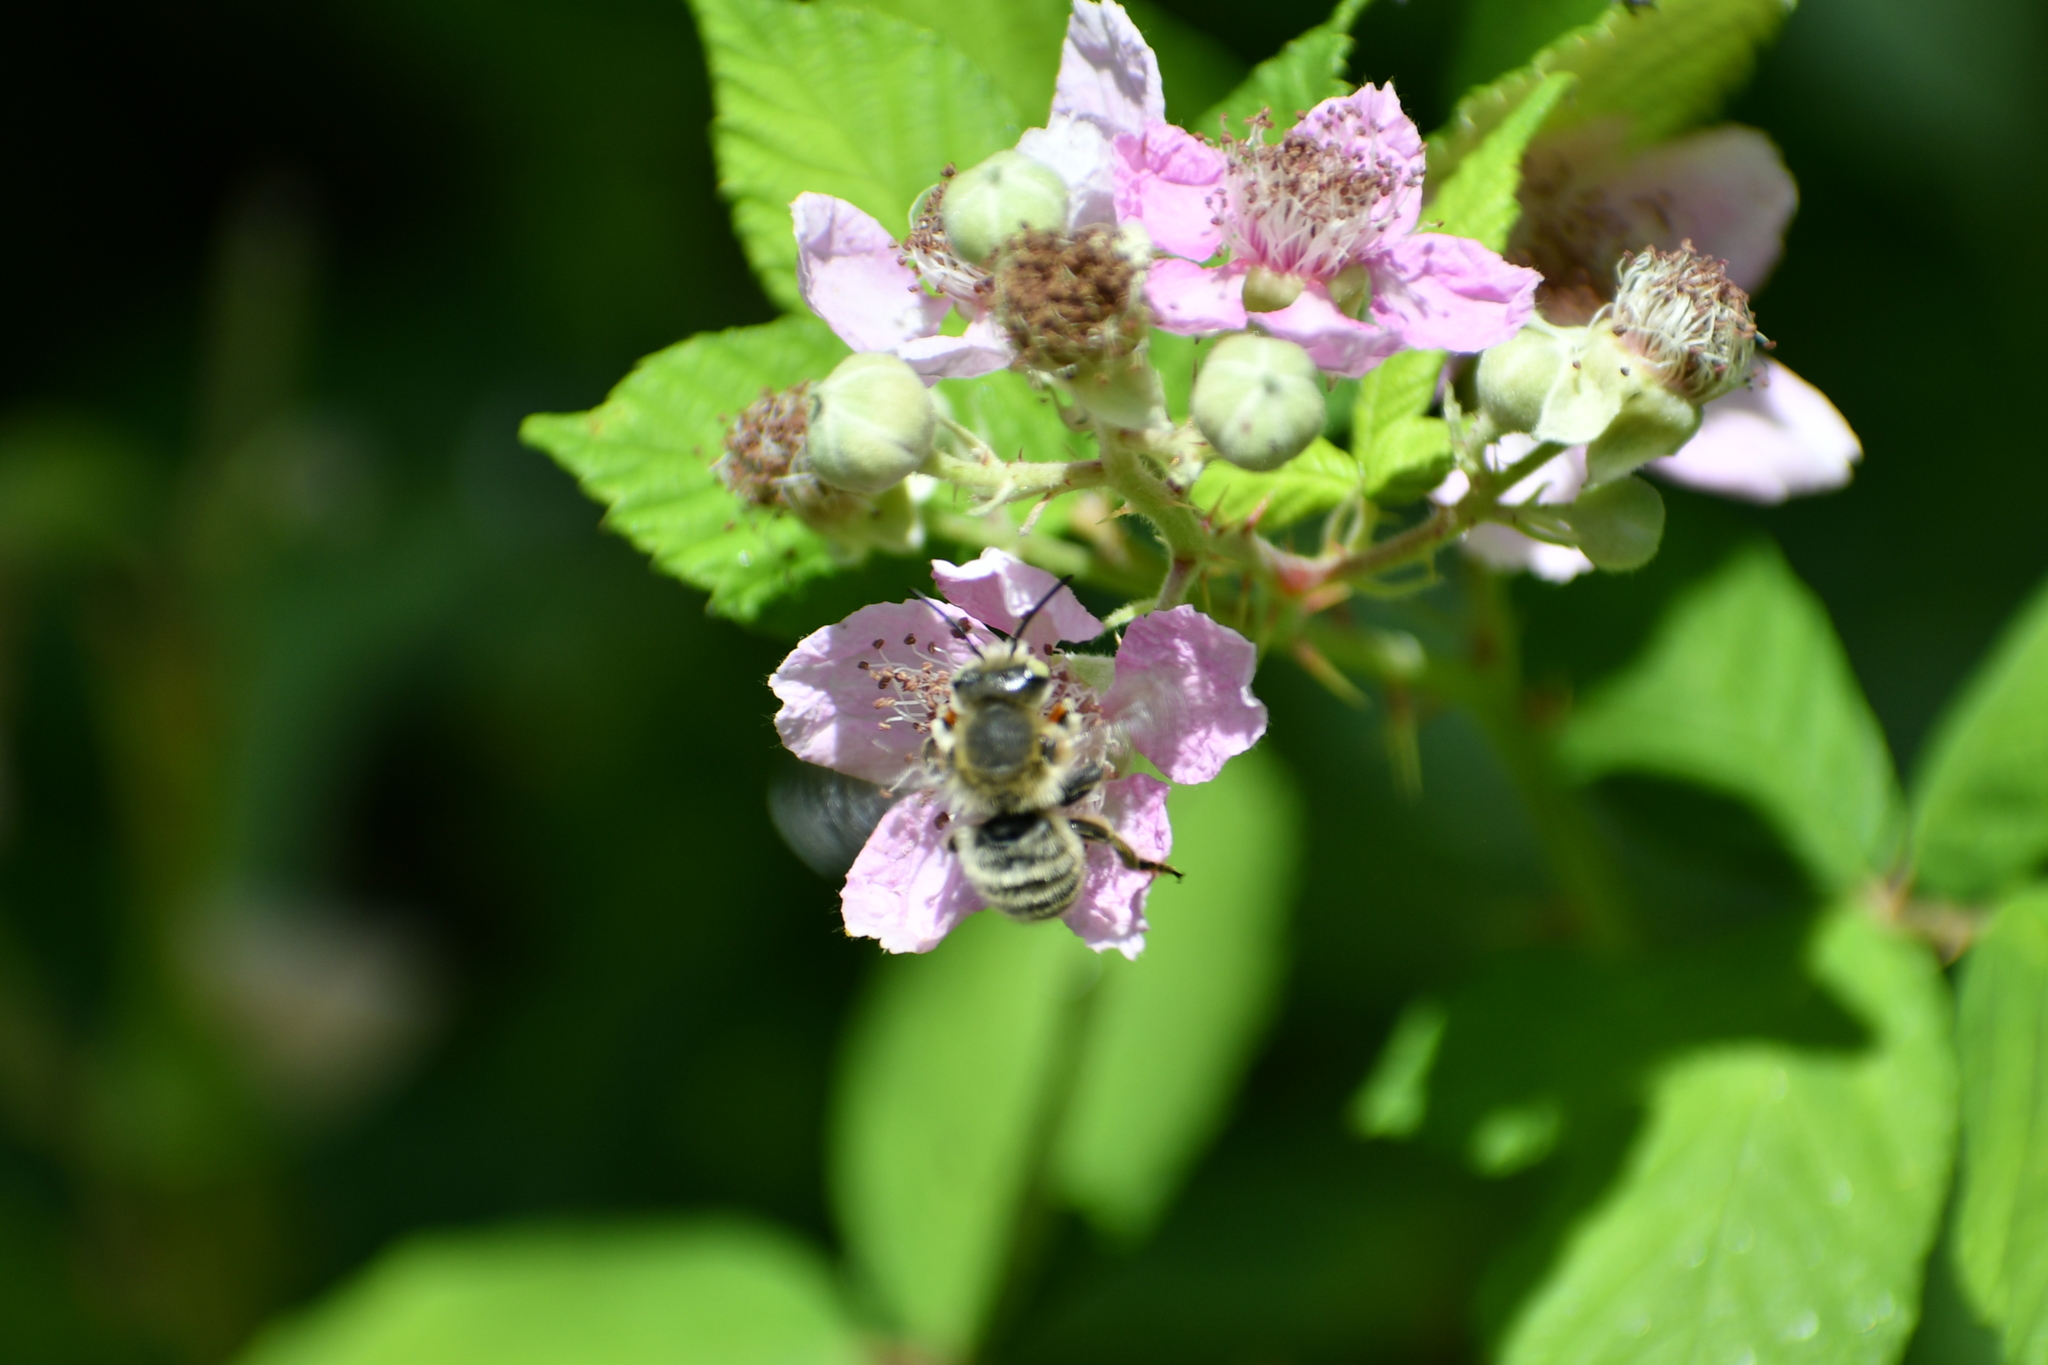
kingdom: Animalia
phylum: Arthropoda
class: Insecta
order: Hymenoptera
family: Megachilidae
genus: Megachile
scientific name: Megachile perihirta
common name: Western leafcutter
